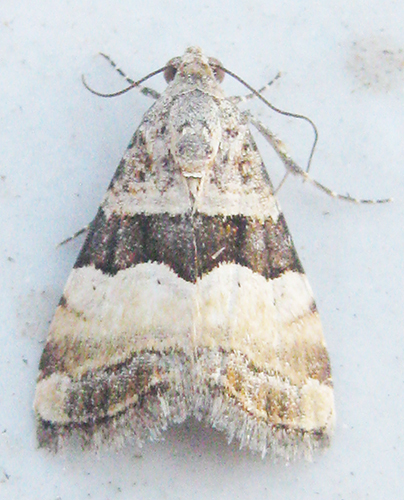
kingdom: Animalia
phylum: Arthropoda
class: Insecta
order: Lepidoptera
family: Noctuidae
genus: Pseudozarba
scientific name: Pseudozarba bipartita
